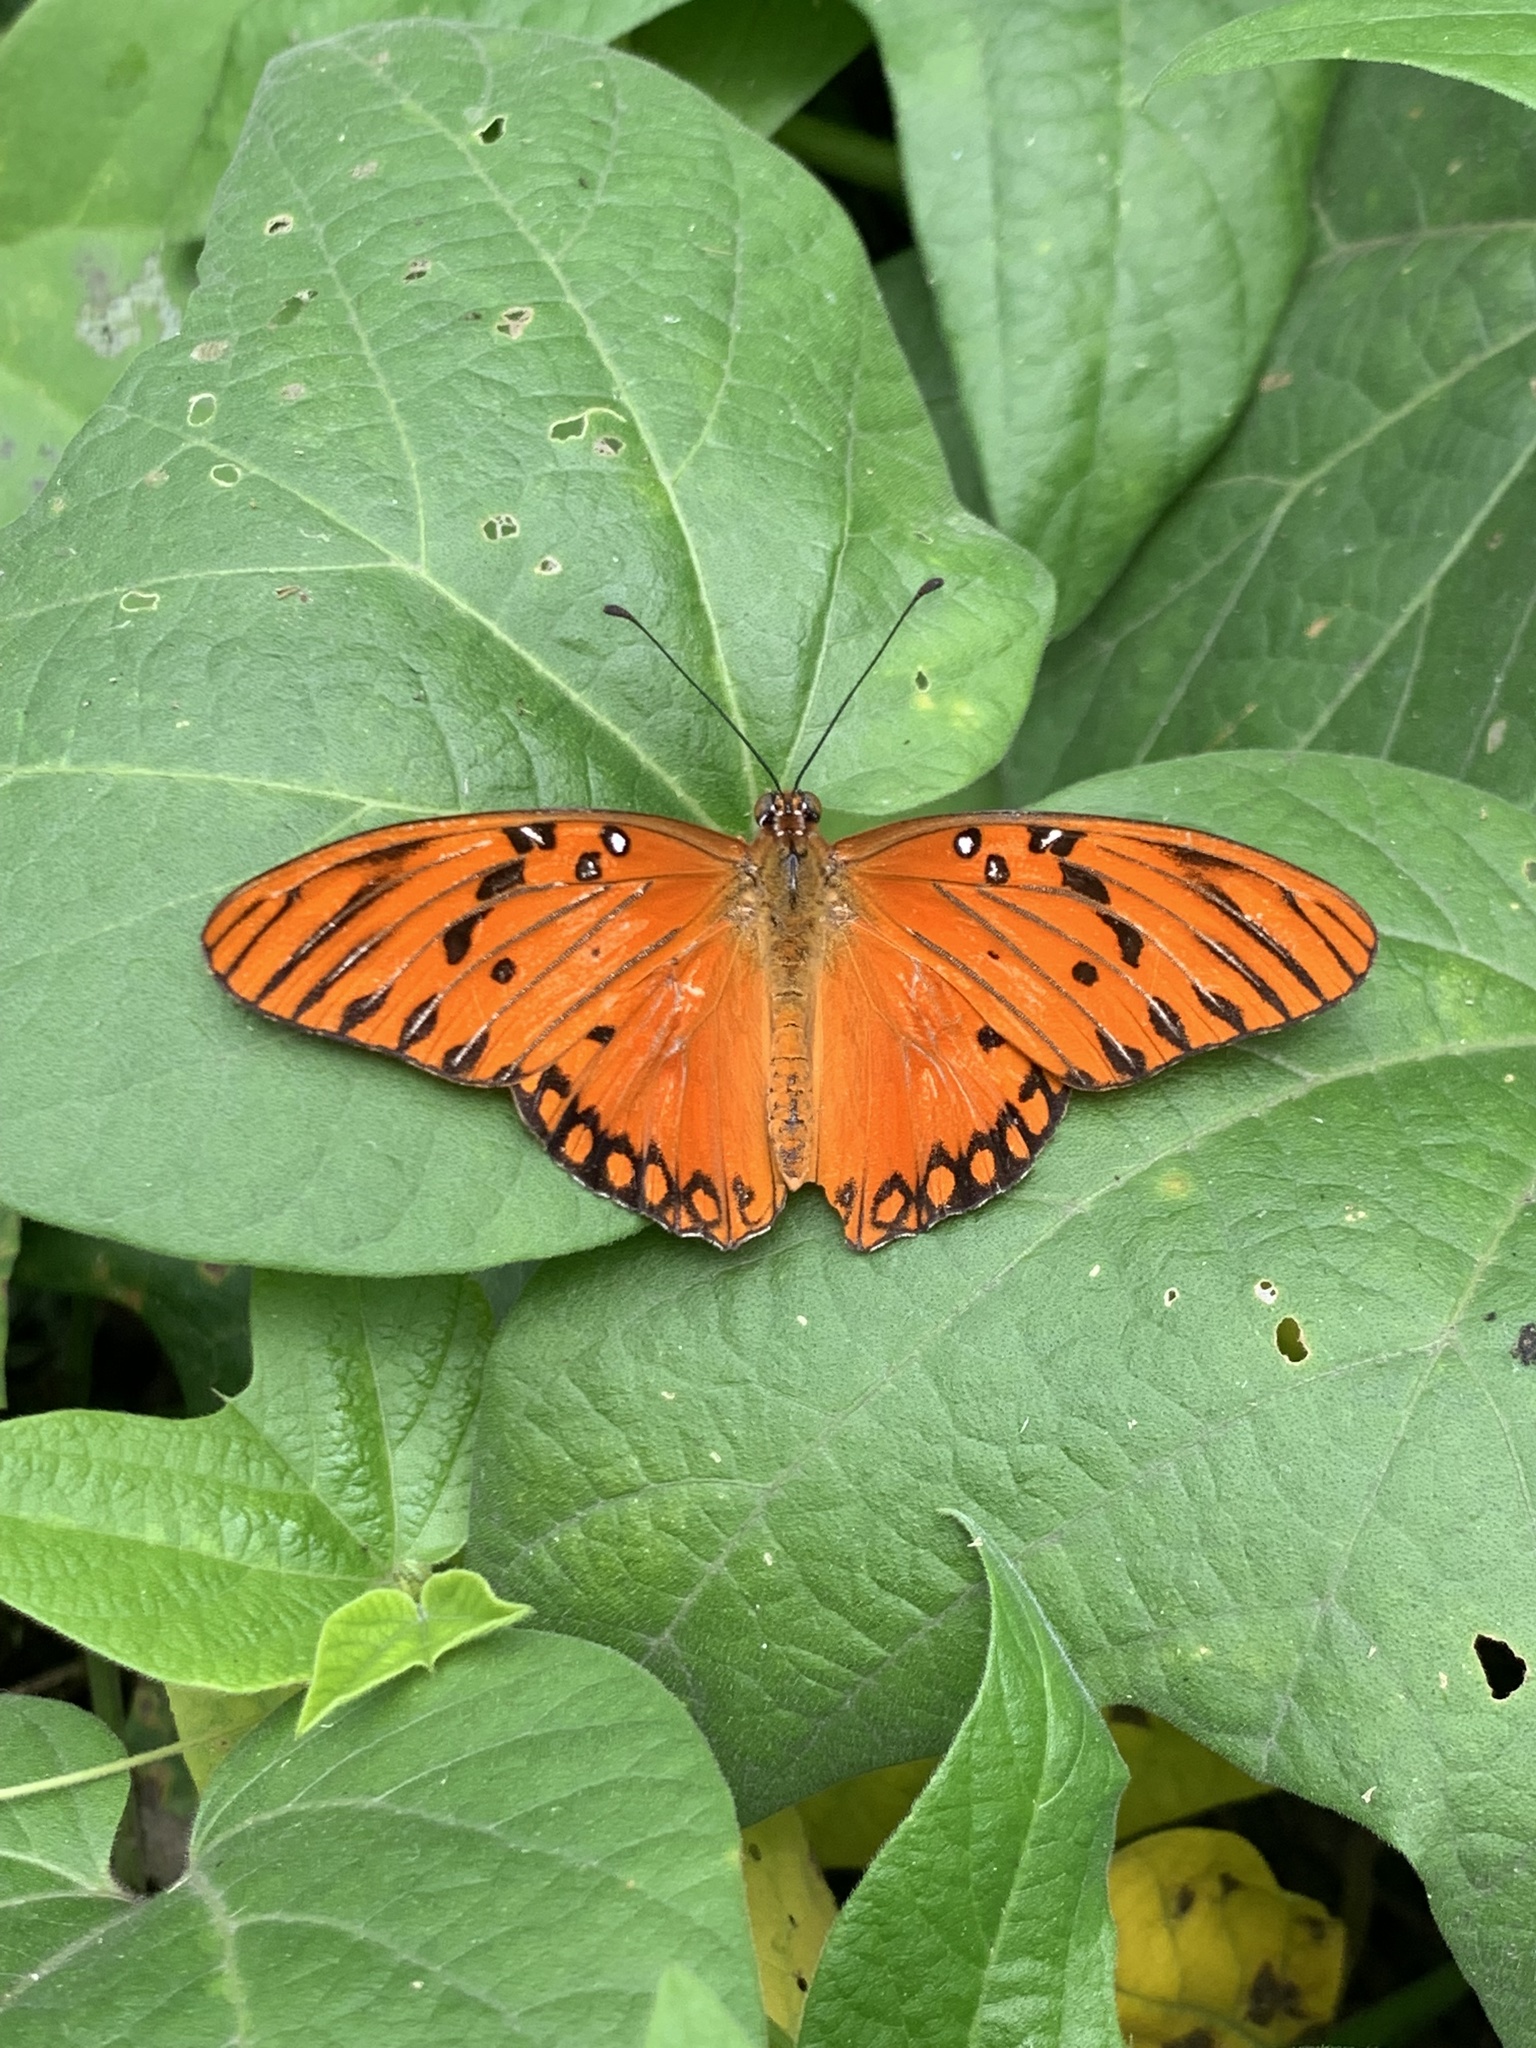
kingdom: Animalia
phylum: Arthropoda
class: Insecta
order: Lepidoptera
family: Nymphalidae
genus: Dione
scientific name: Dione vanillae
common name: Gulf fritillary
